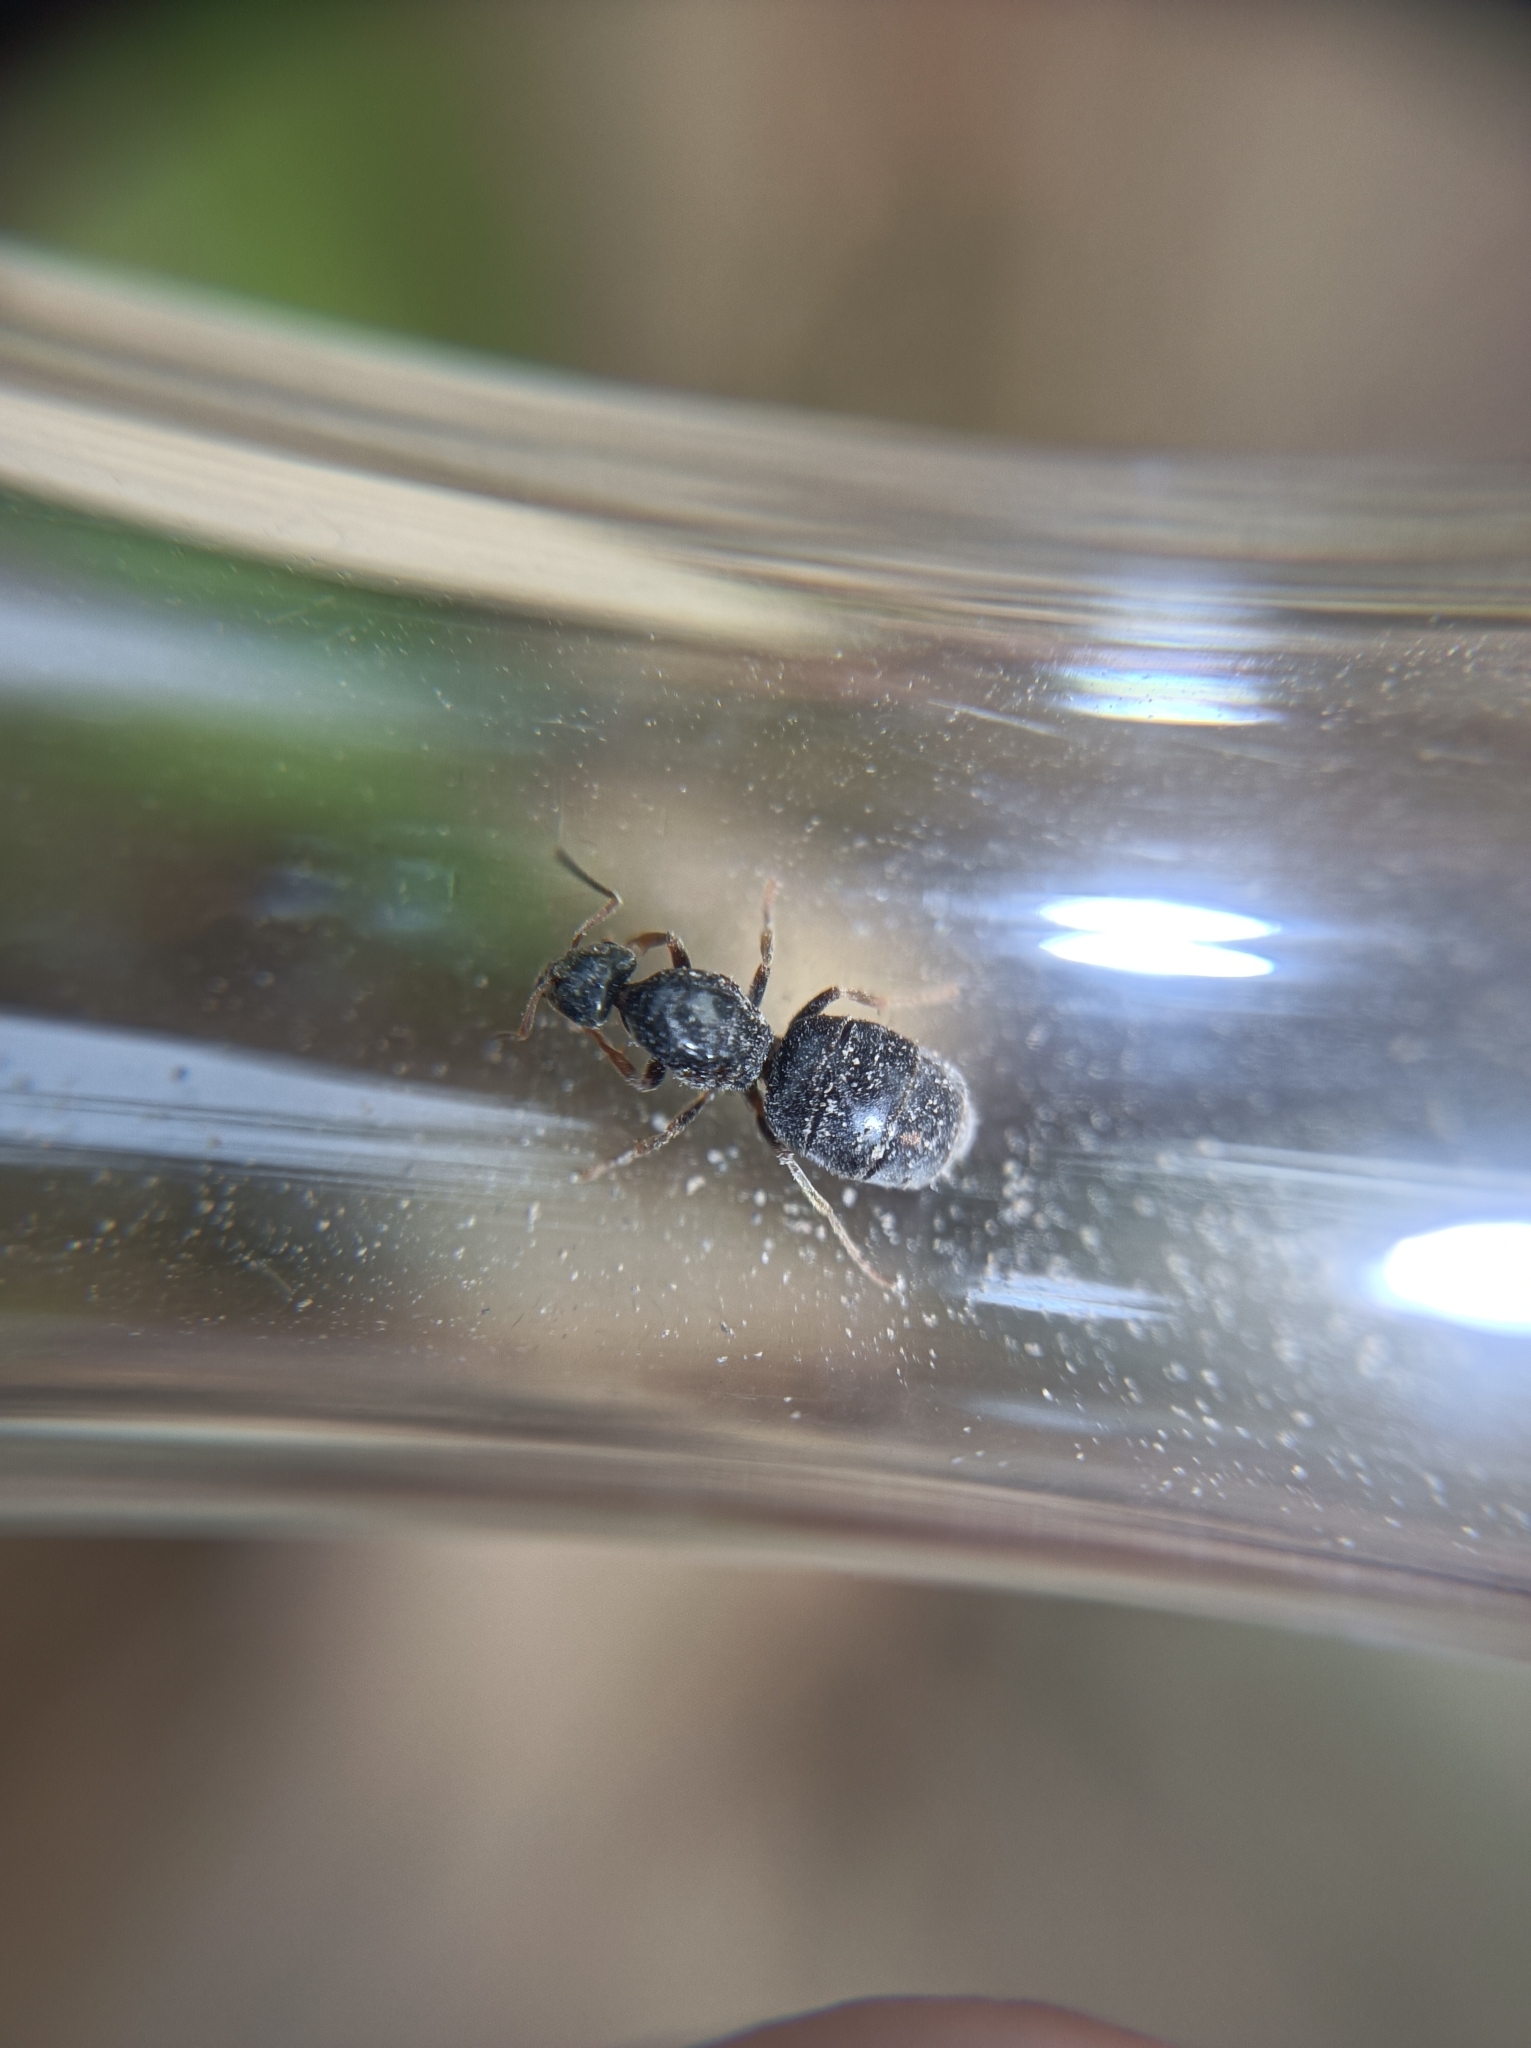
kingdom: Animalia
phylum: Arthropoda
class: Insecta
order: Hymenoptera
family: Formicidae
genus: Lasius
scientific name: Lasius platythorax
